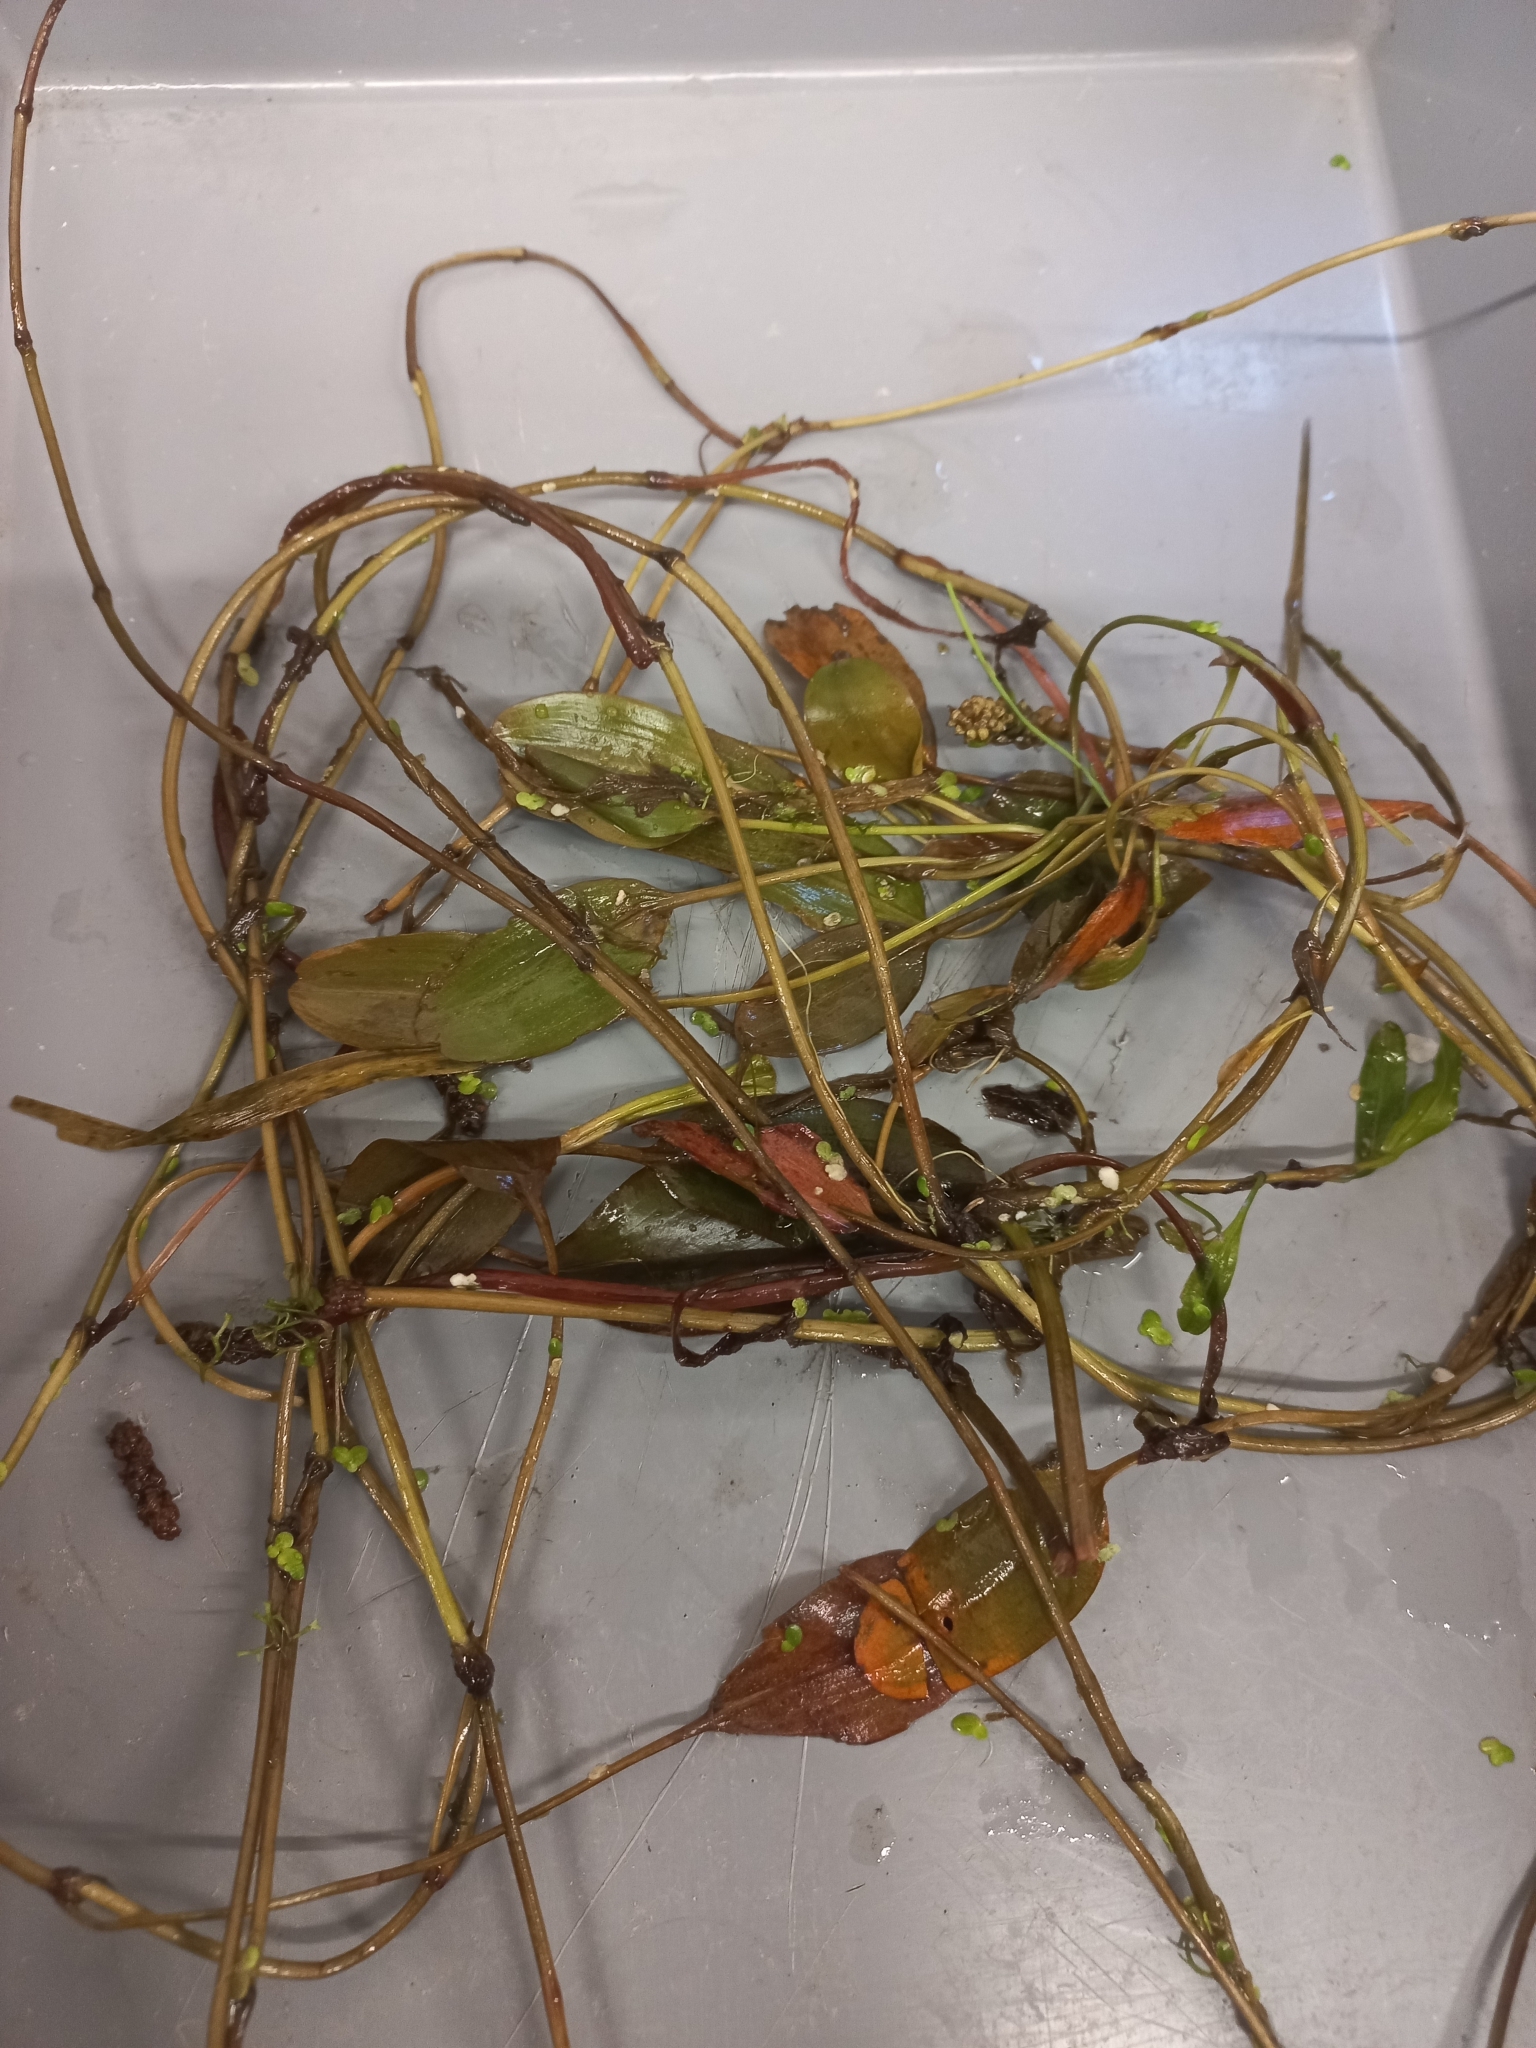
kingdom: Plantae
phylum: Tracheophyta
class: Liliopsida
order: Alismatales
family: Potamogetonaceae
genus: Potamogeton
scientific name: Potamogeton cheesemanii
